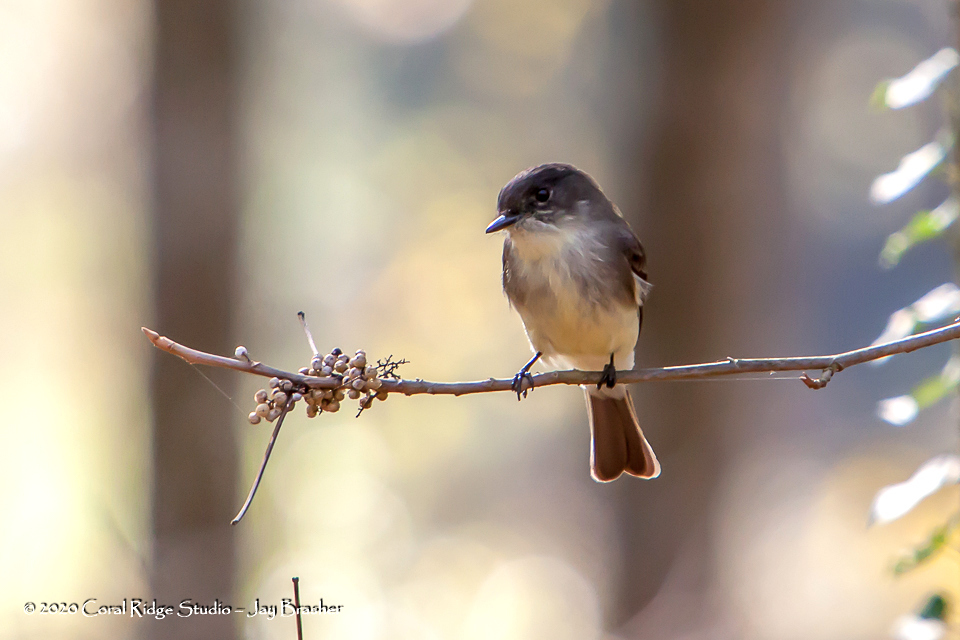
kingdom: Animalia
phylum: Chordata
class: Aves
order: Passeriformes
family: Tyrannidae
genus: Sayornis
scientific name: Sayornis phoebe
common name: Eastern phoebe
